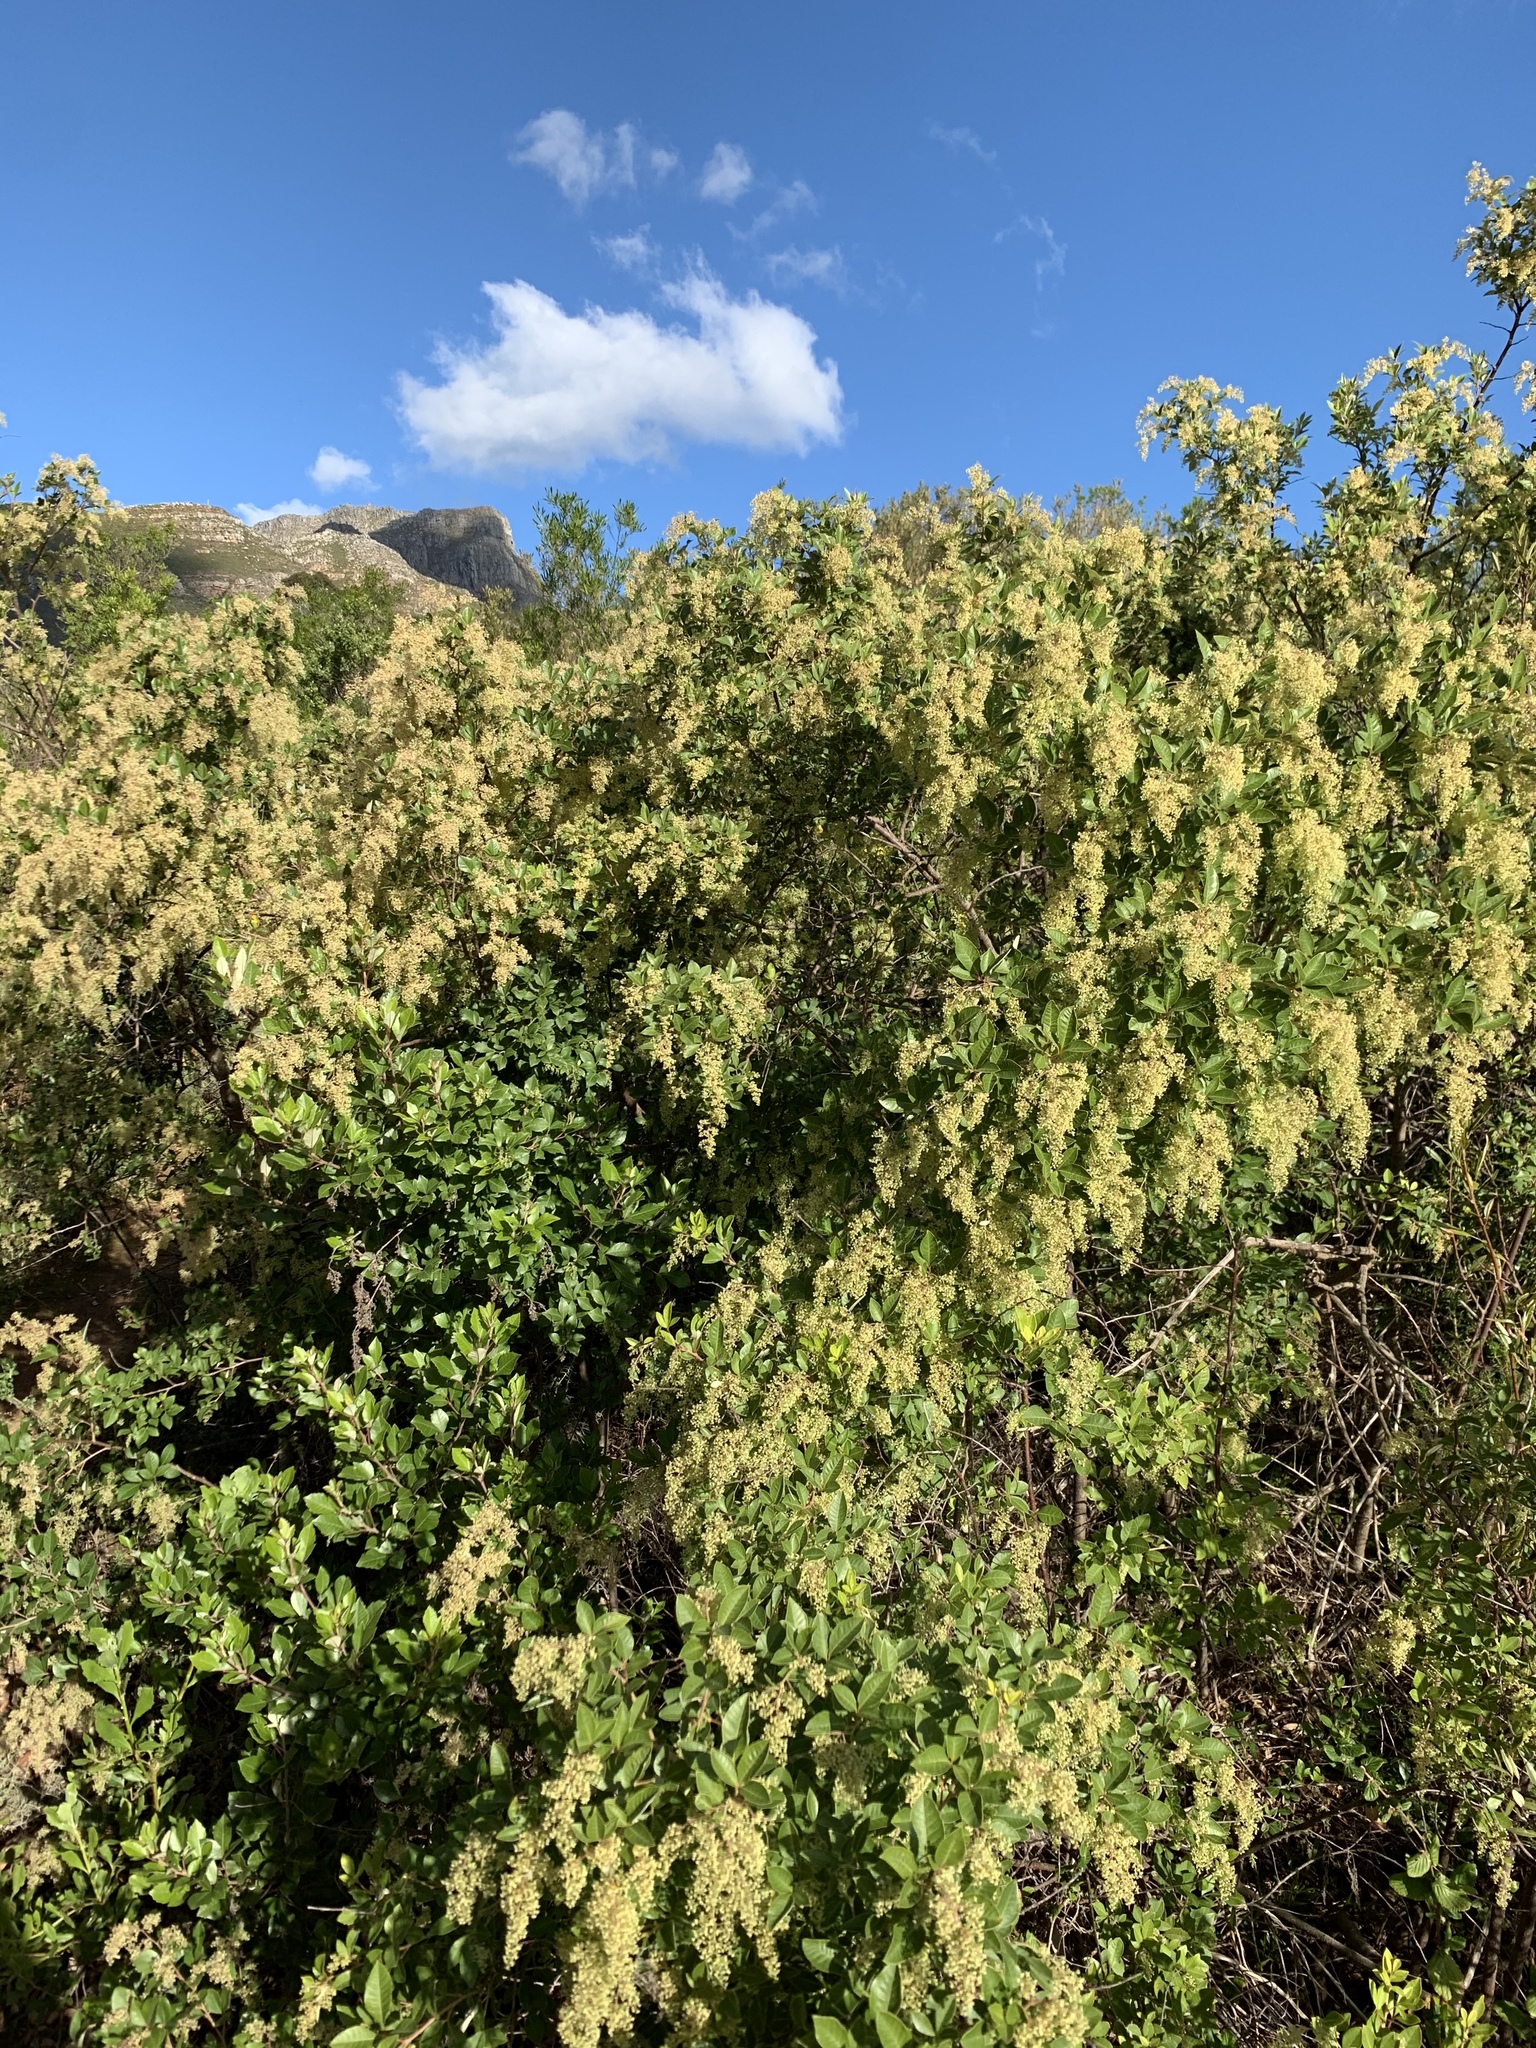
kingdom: Plantae
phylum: Tracheophyta
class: Magnoliopsida
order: Sapindales
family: Anacardiaceae
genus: Searsia
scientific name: Searsia tomentosa
